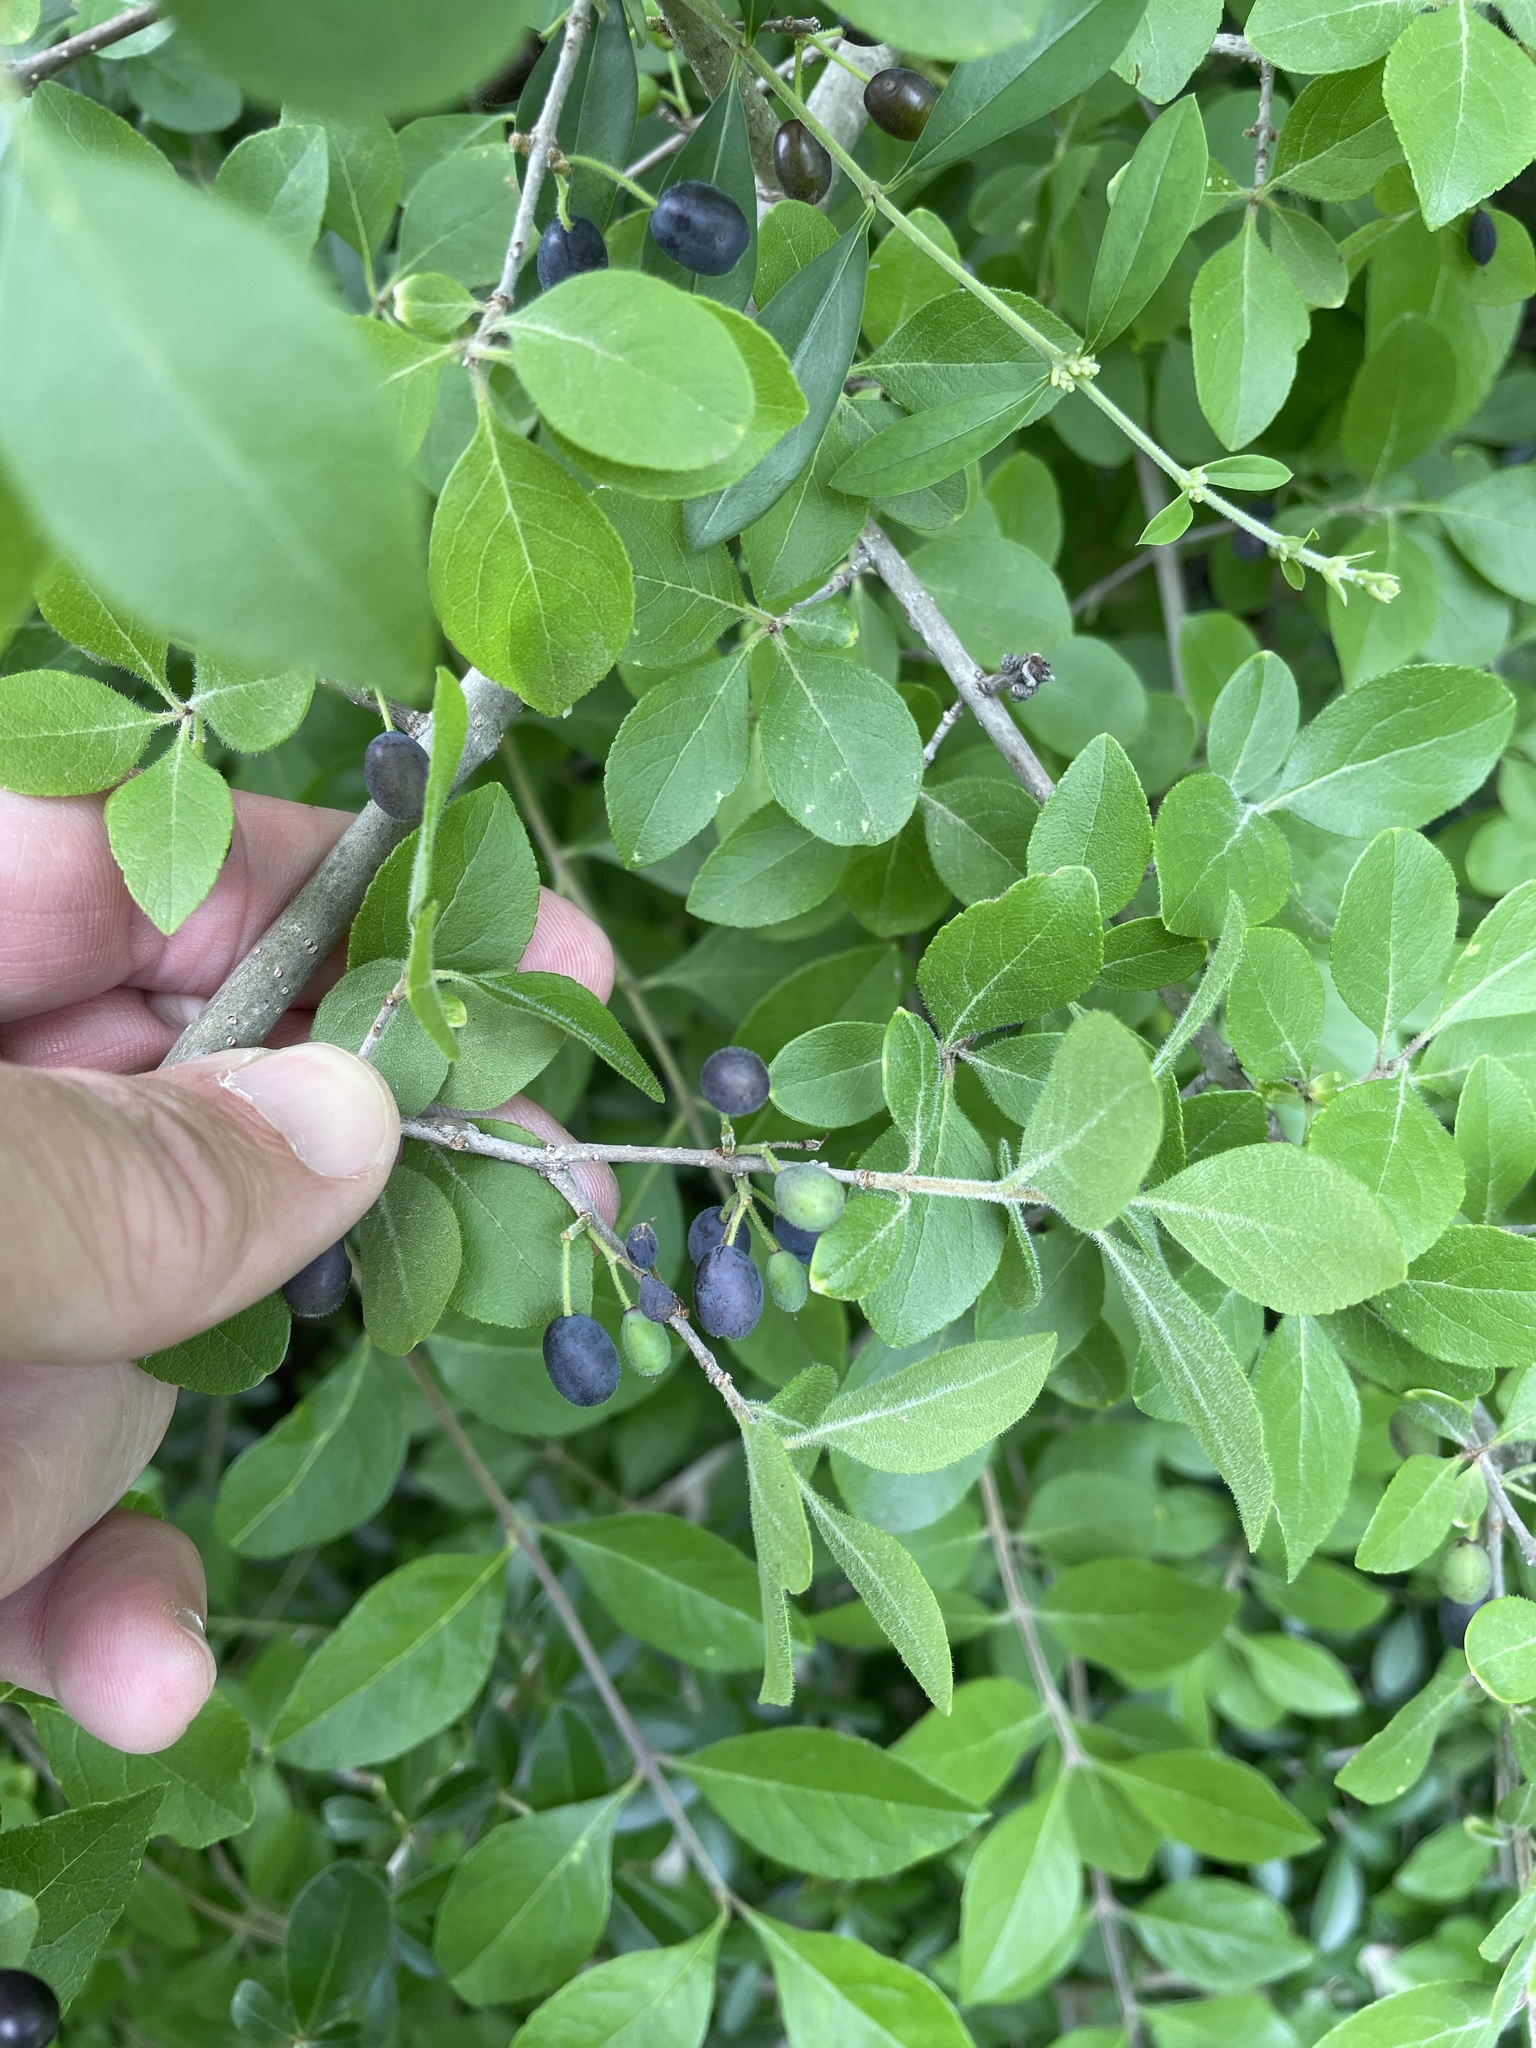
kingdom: Plantae
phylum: Tracheophyta
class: Magnoliopsida
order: Lamiales
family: Oleaceae
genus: Forestiera
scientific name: Forestiera pubescens
